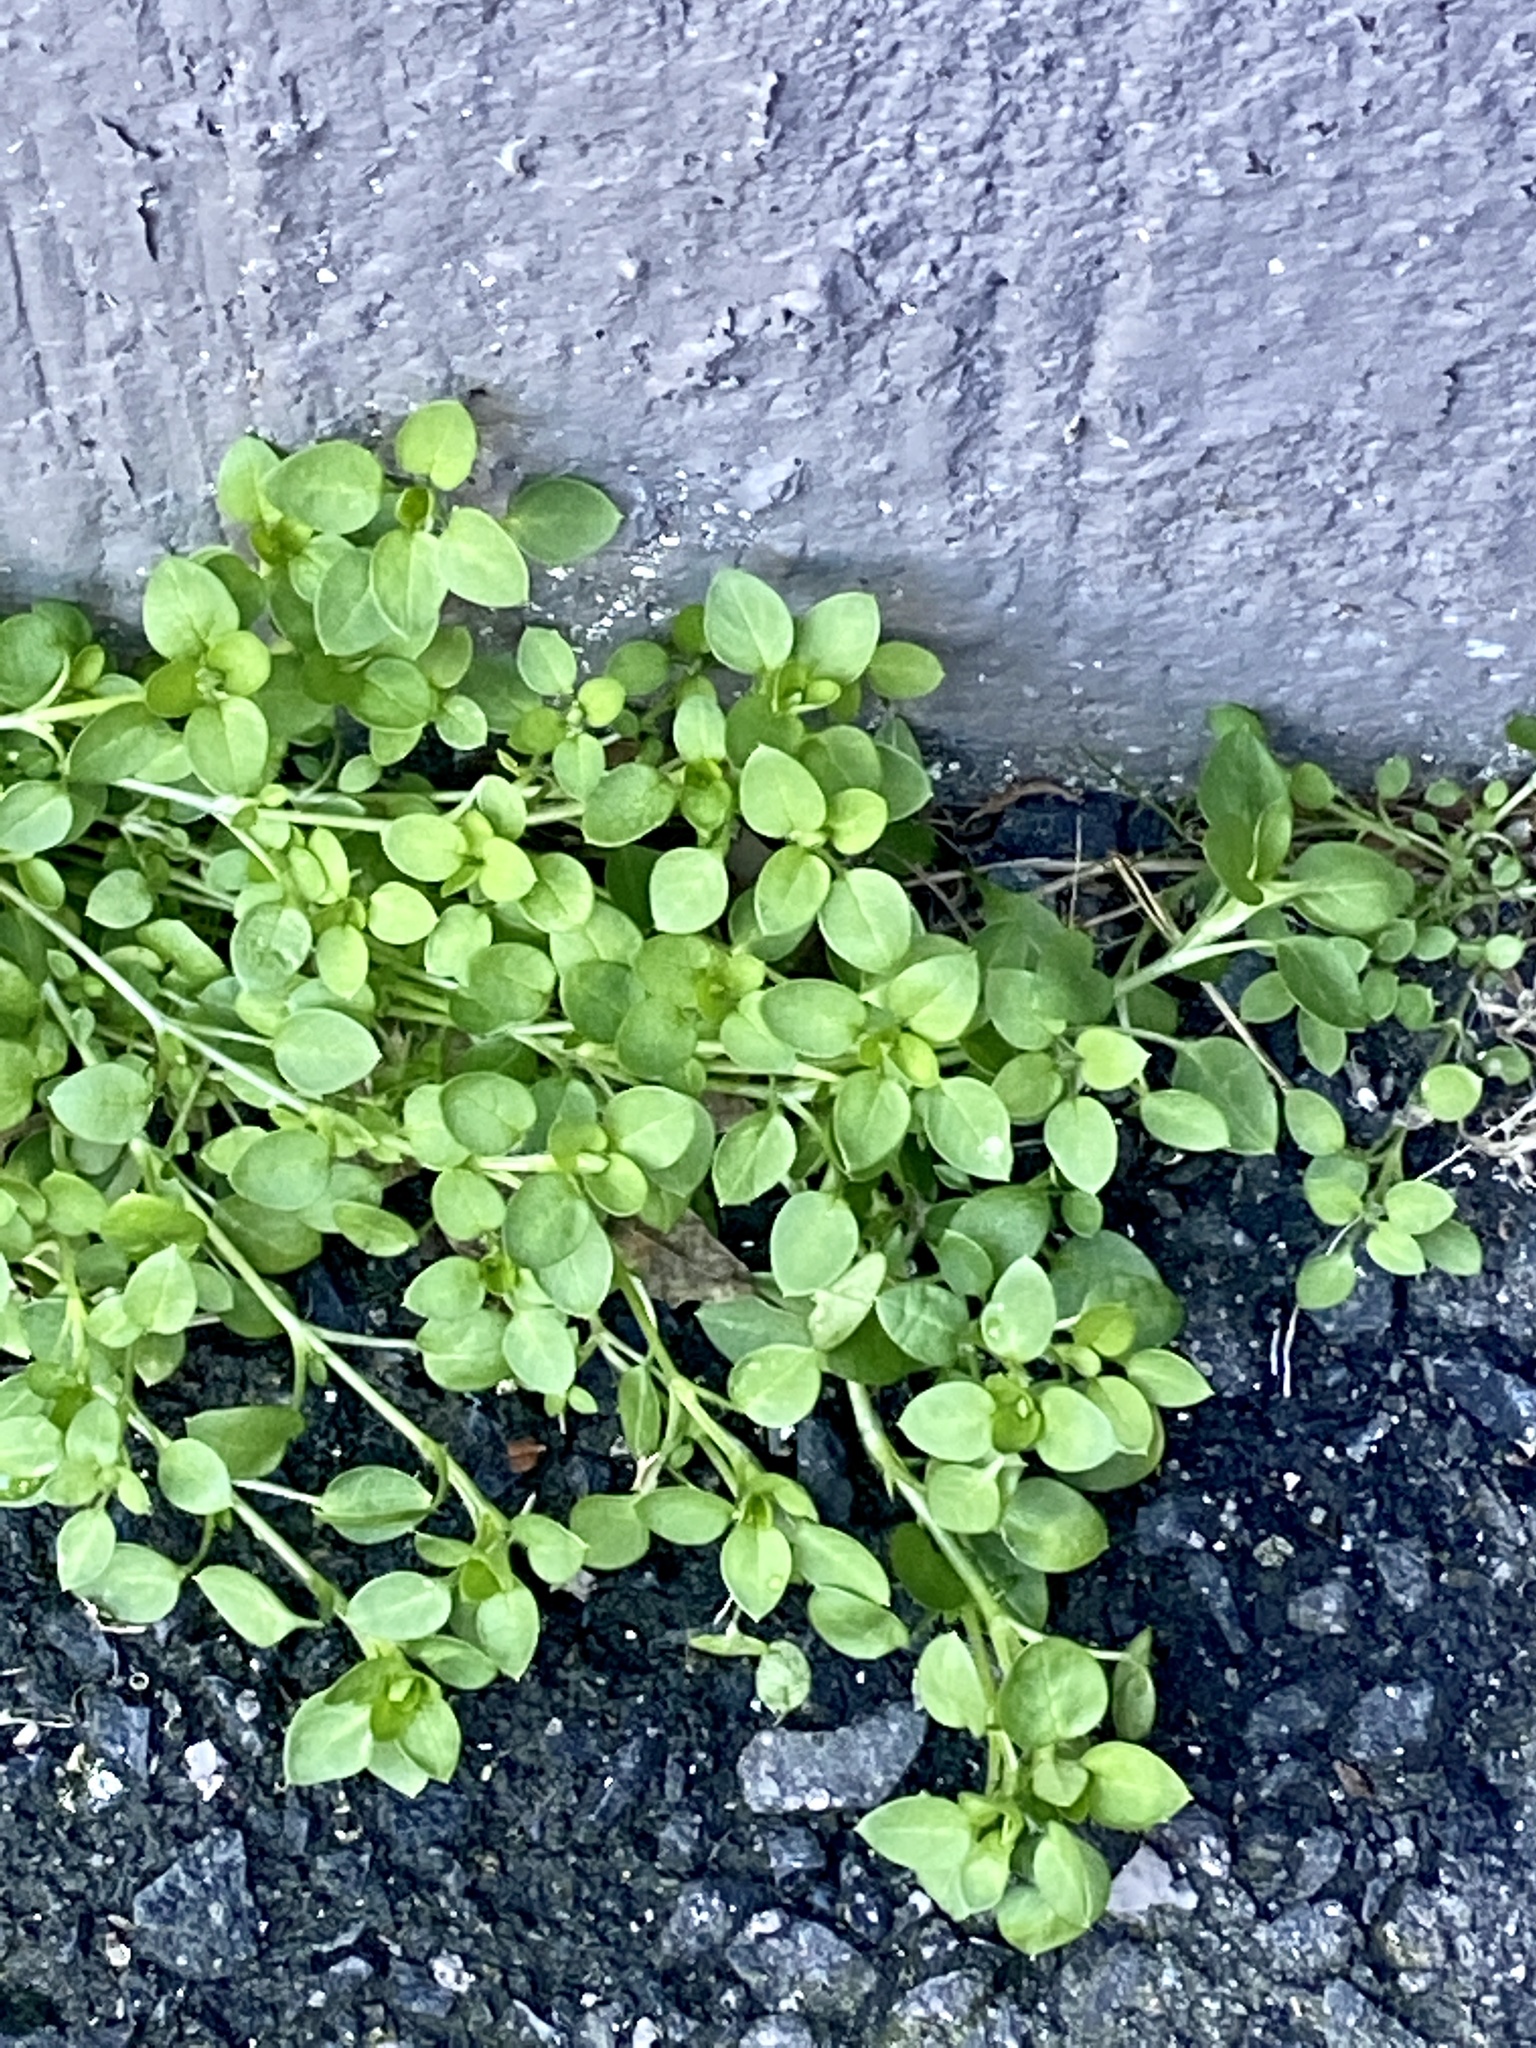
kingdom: Plantae
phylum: Tracheophyta
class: Magnoliopsida
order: Caryophyllales
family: Caryophyllaceae
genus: Stellaria
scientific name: Stellaria media
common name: Common chickweed
